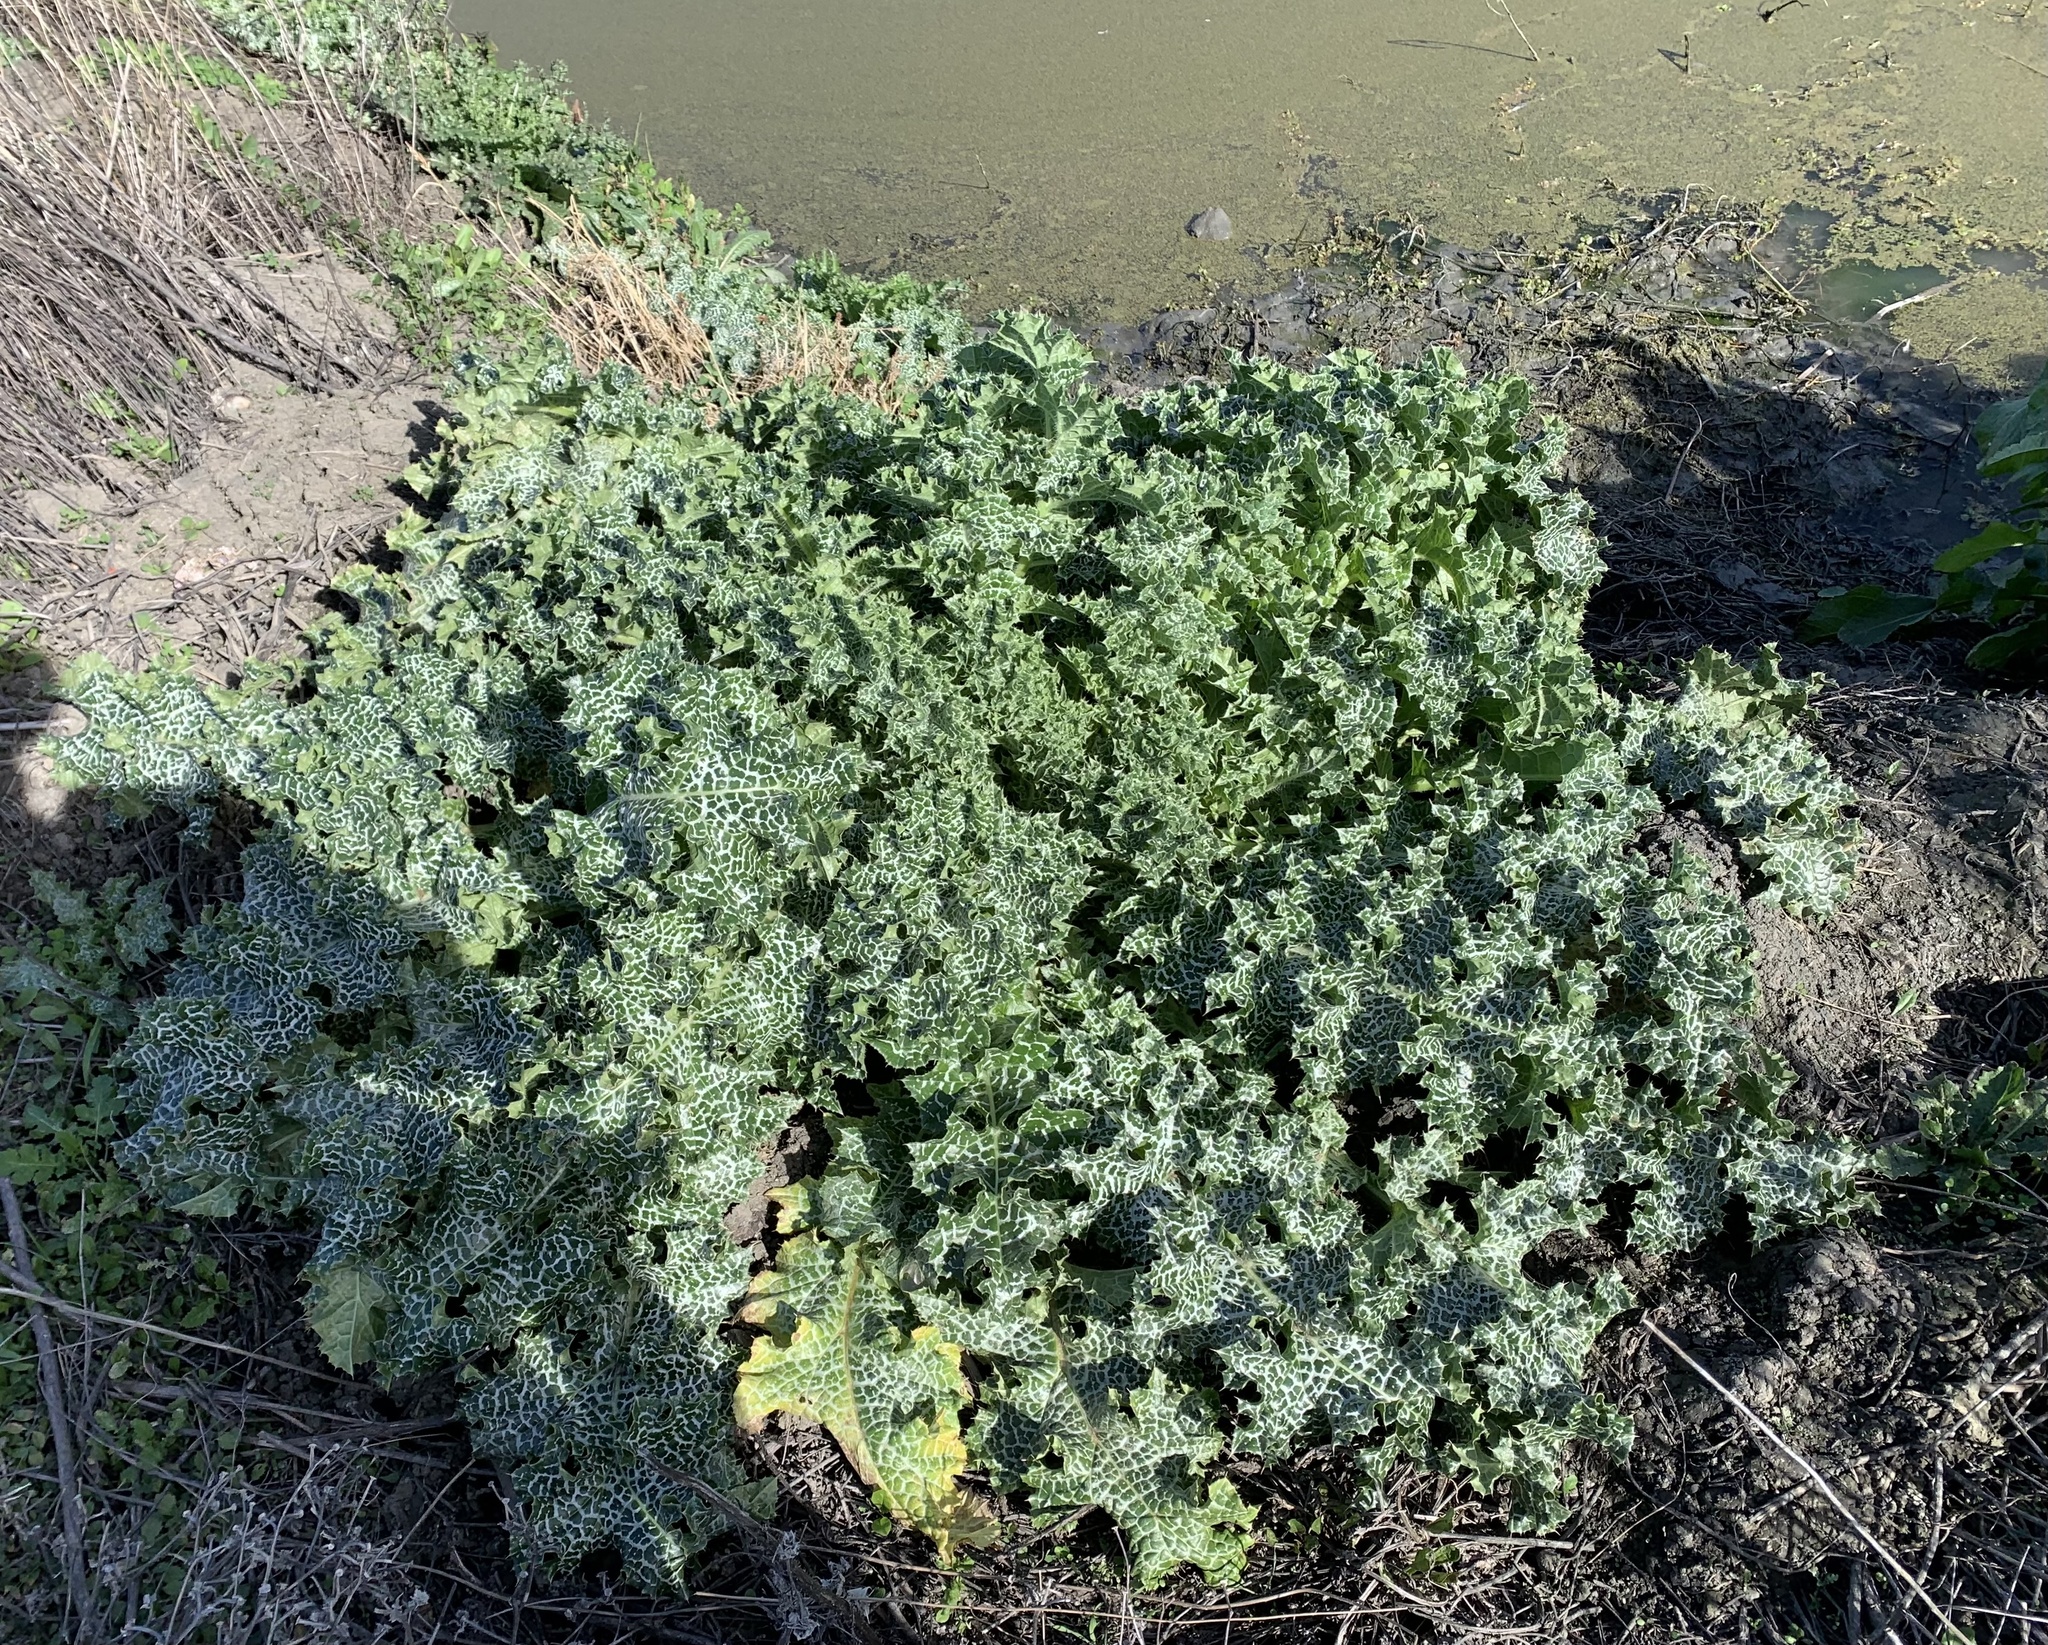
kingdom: Plantae
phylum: Tracheophyta
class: Magnoliopsida
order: Asterales
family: Asteraceae
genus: Silybum
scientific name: Silybum marianum
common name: Milk thistle
